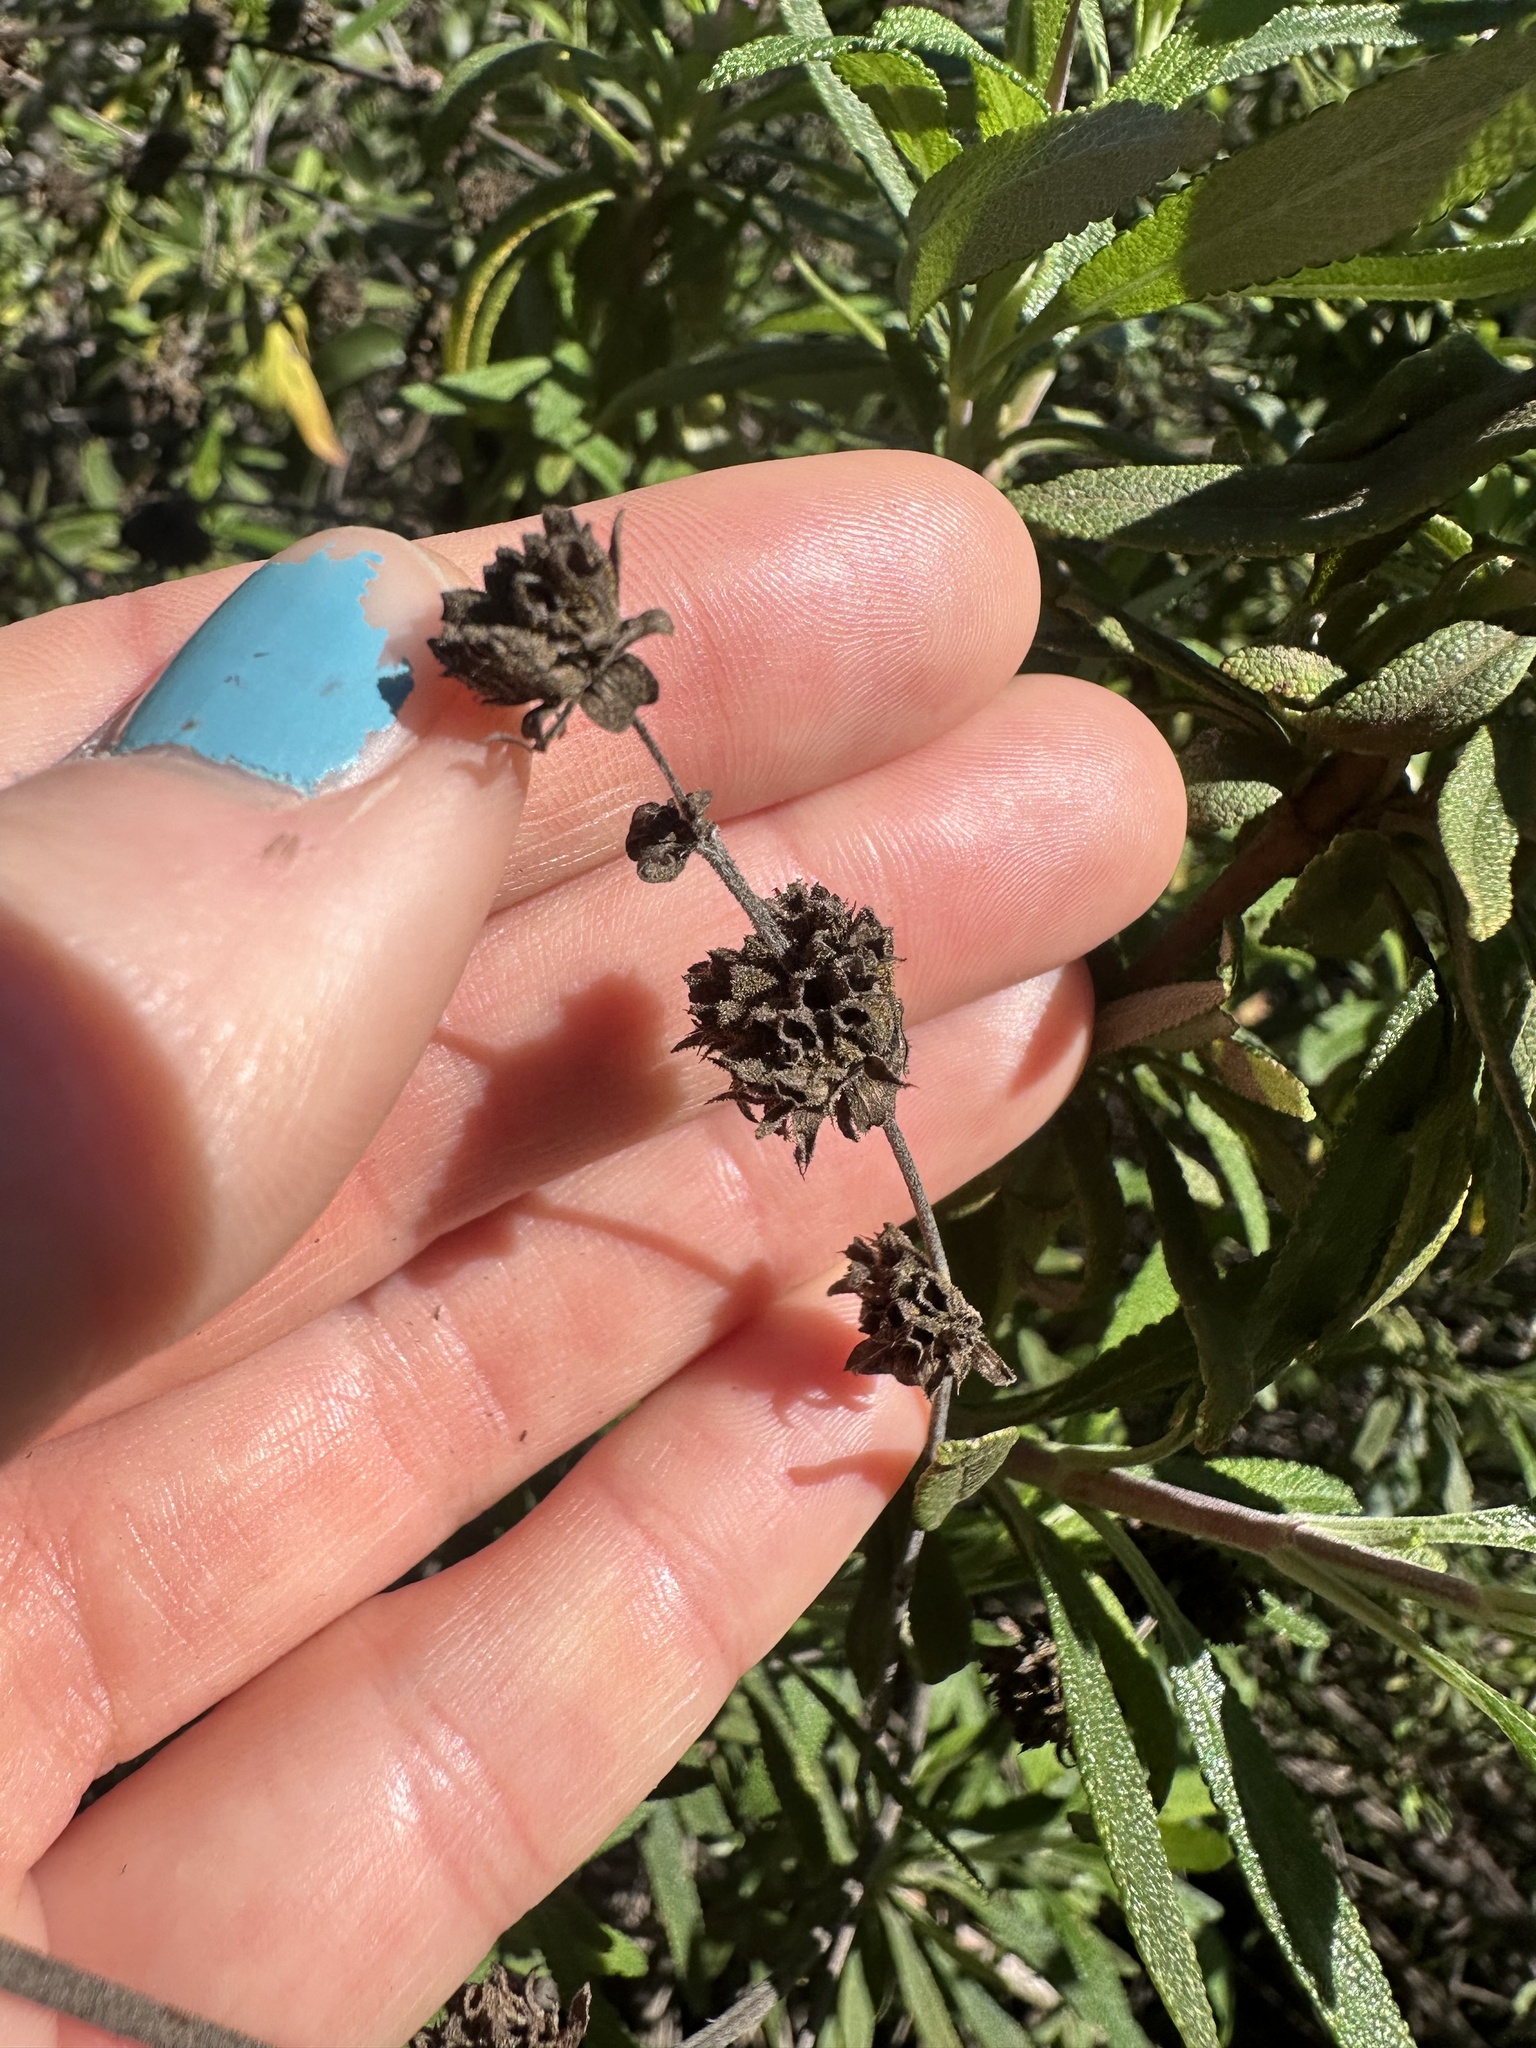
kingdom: Plantae
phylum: Tracheophyta
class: Magnoliopsida
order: Lamiales
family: Lamiaceae
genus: Salvia
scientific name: Salvia mellifera
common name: Black sage
